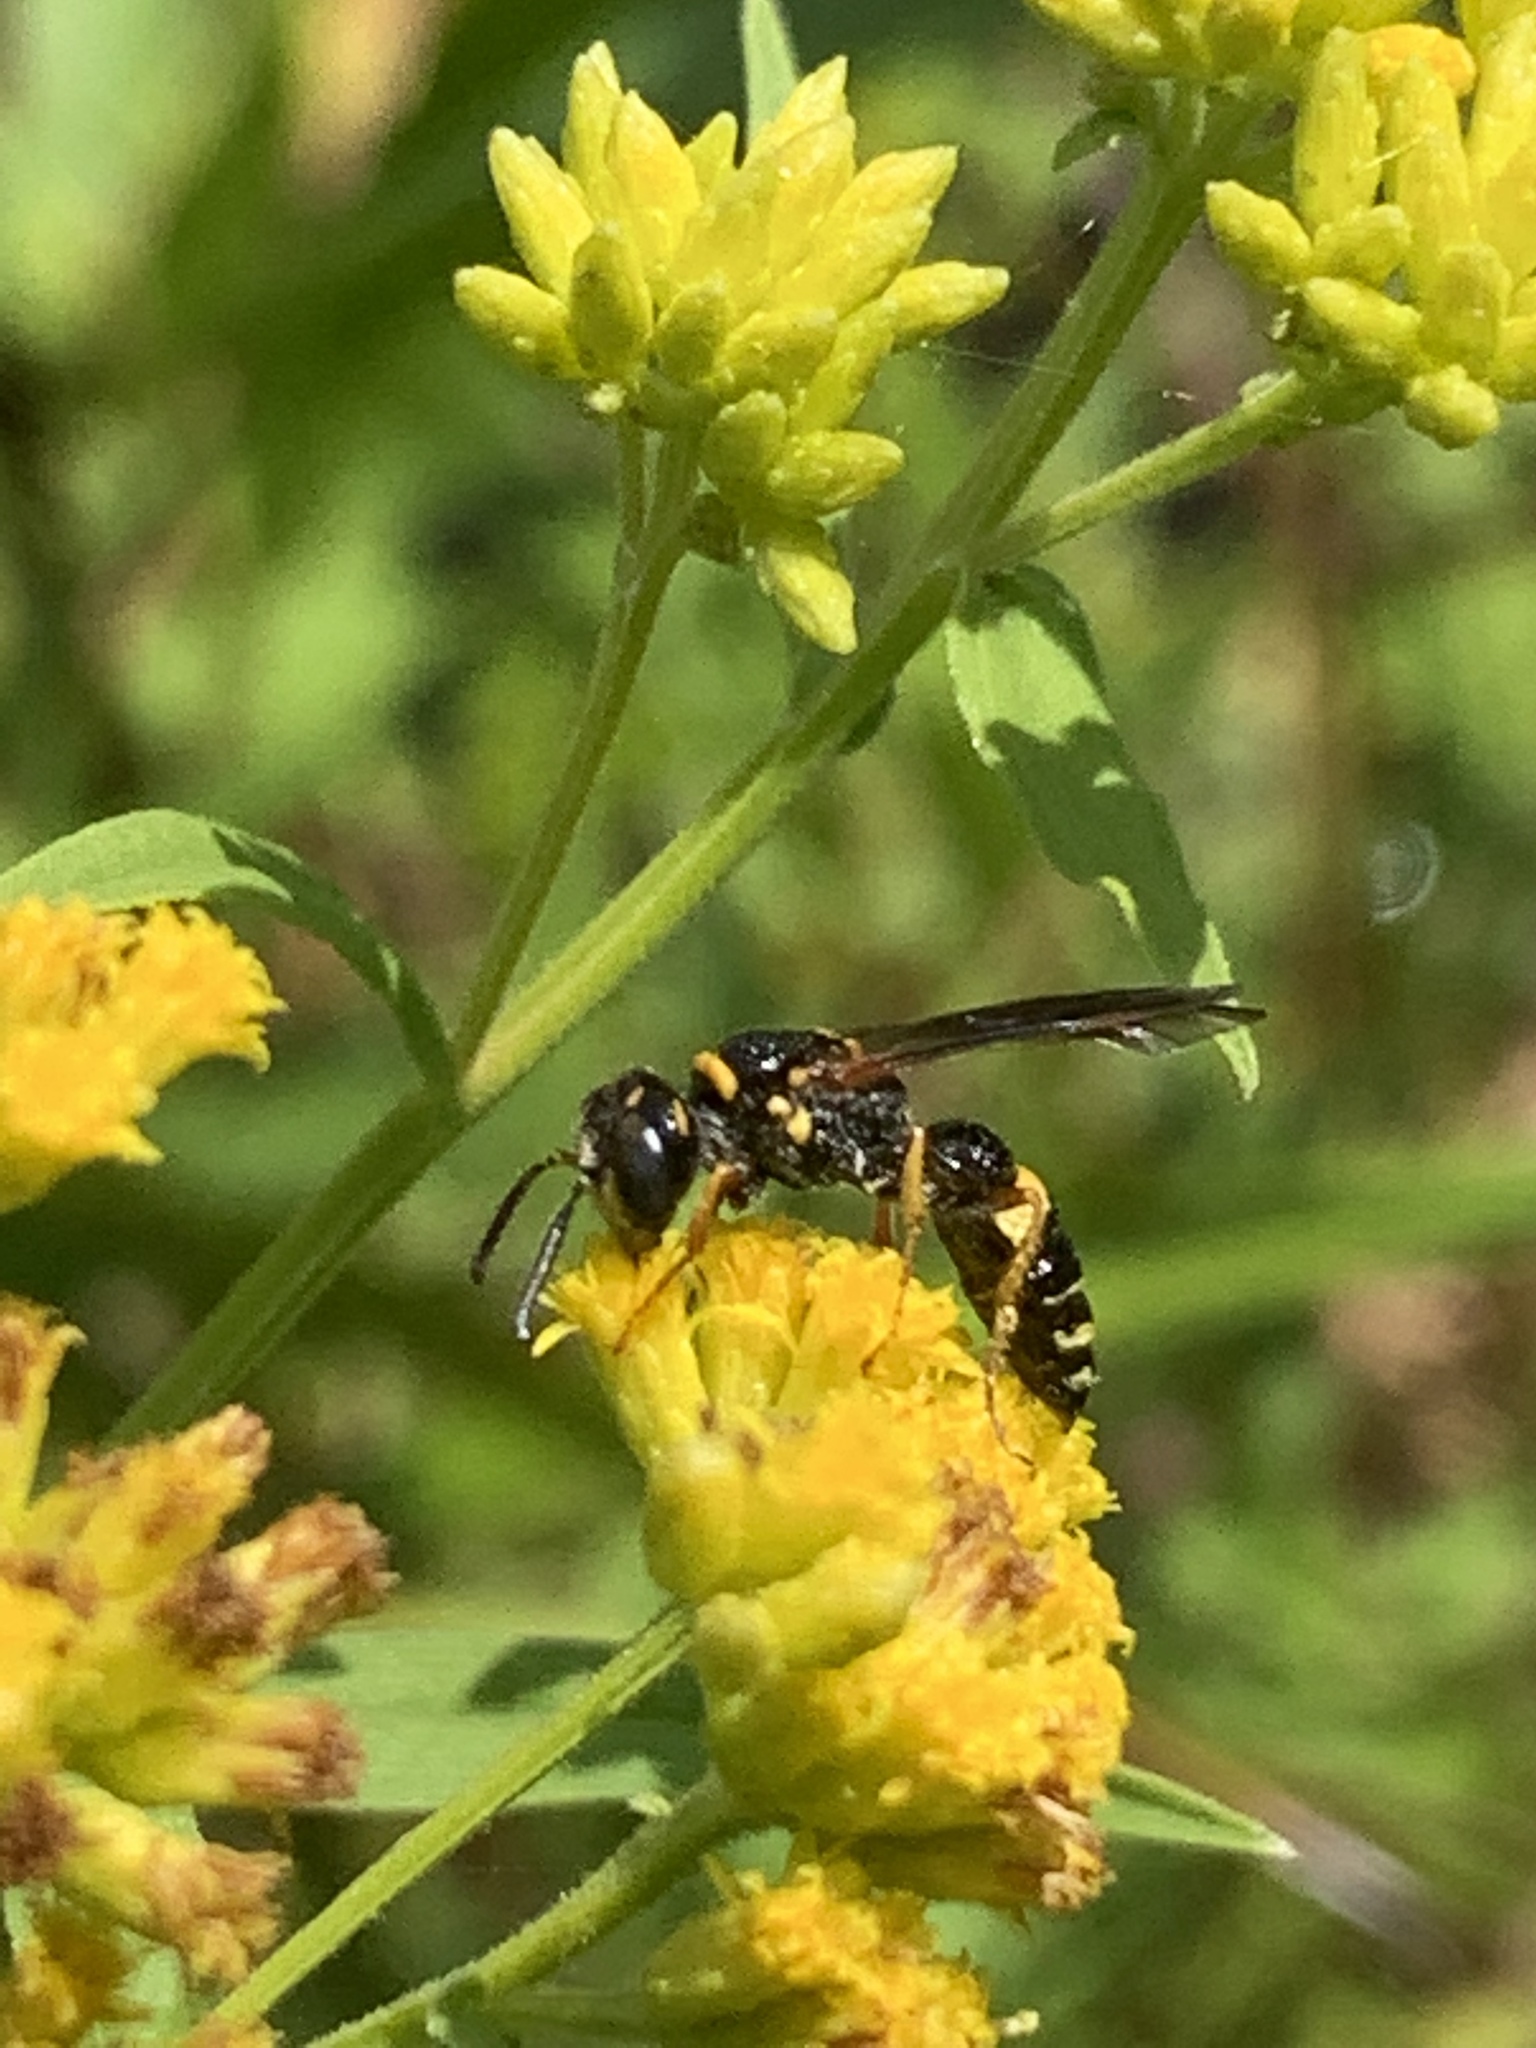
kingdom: Animalia
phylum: Arthropoda
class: Insecta
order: Hymenoptera
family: Crabronidae
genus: Philanthus
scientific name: Philanthus gibbosus
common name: Humped beewolf
